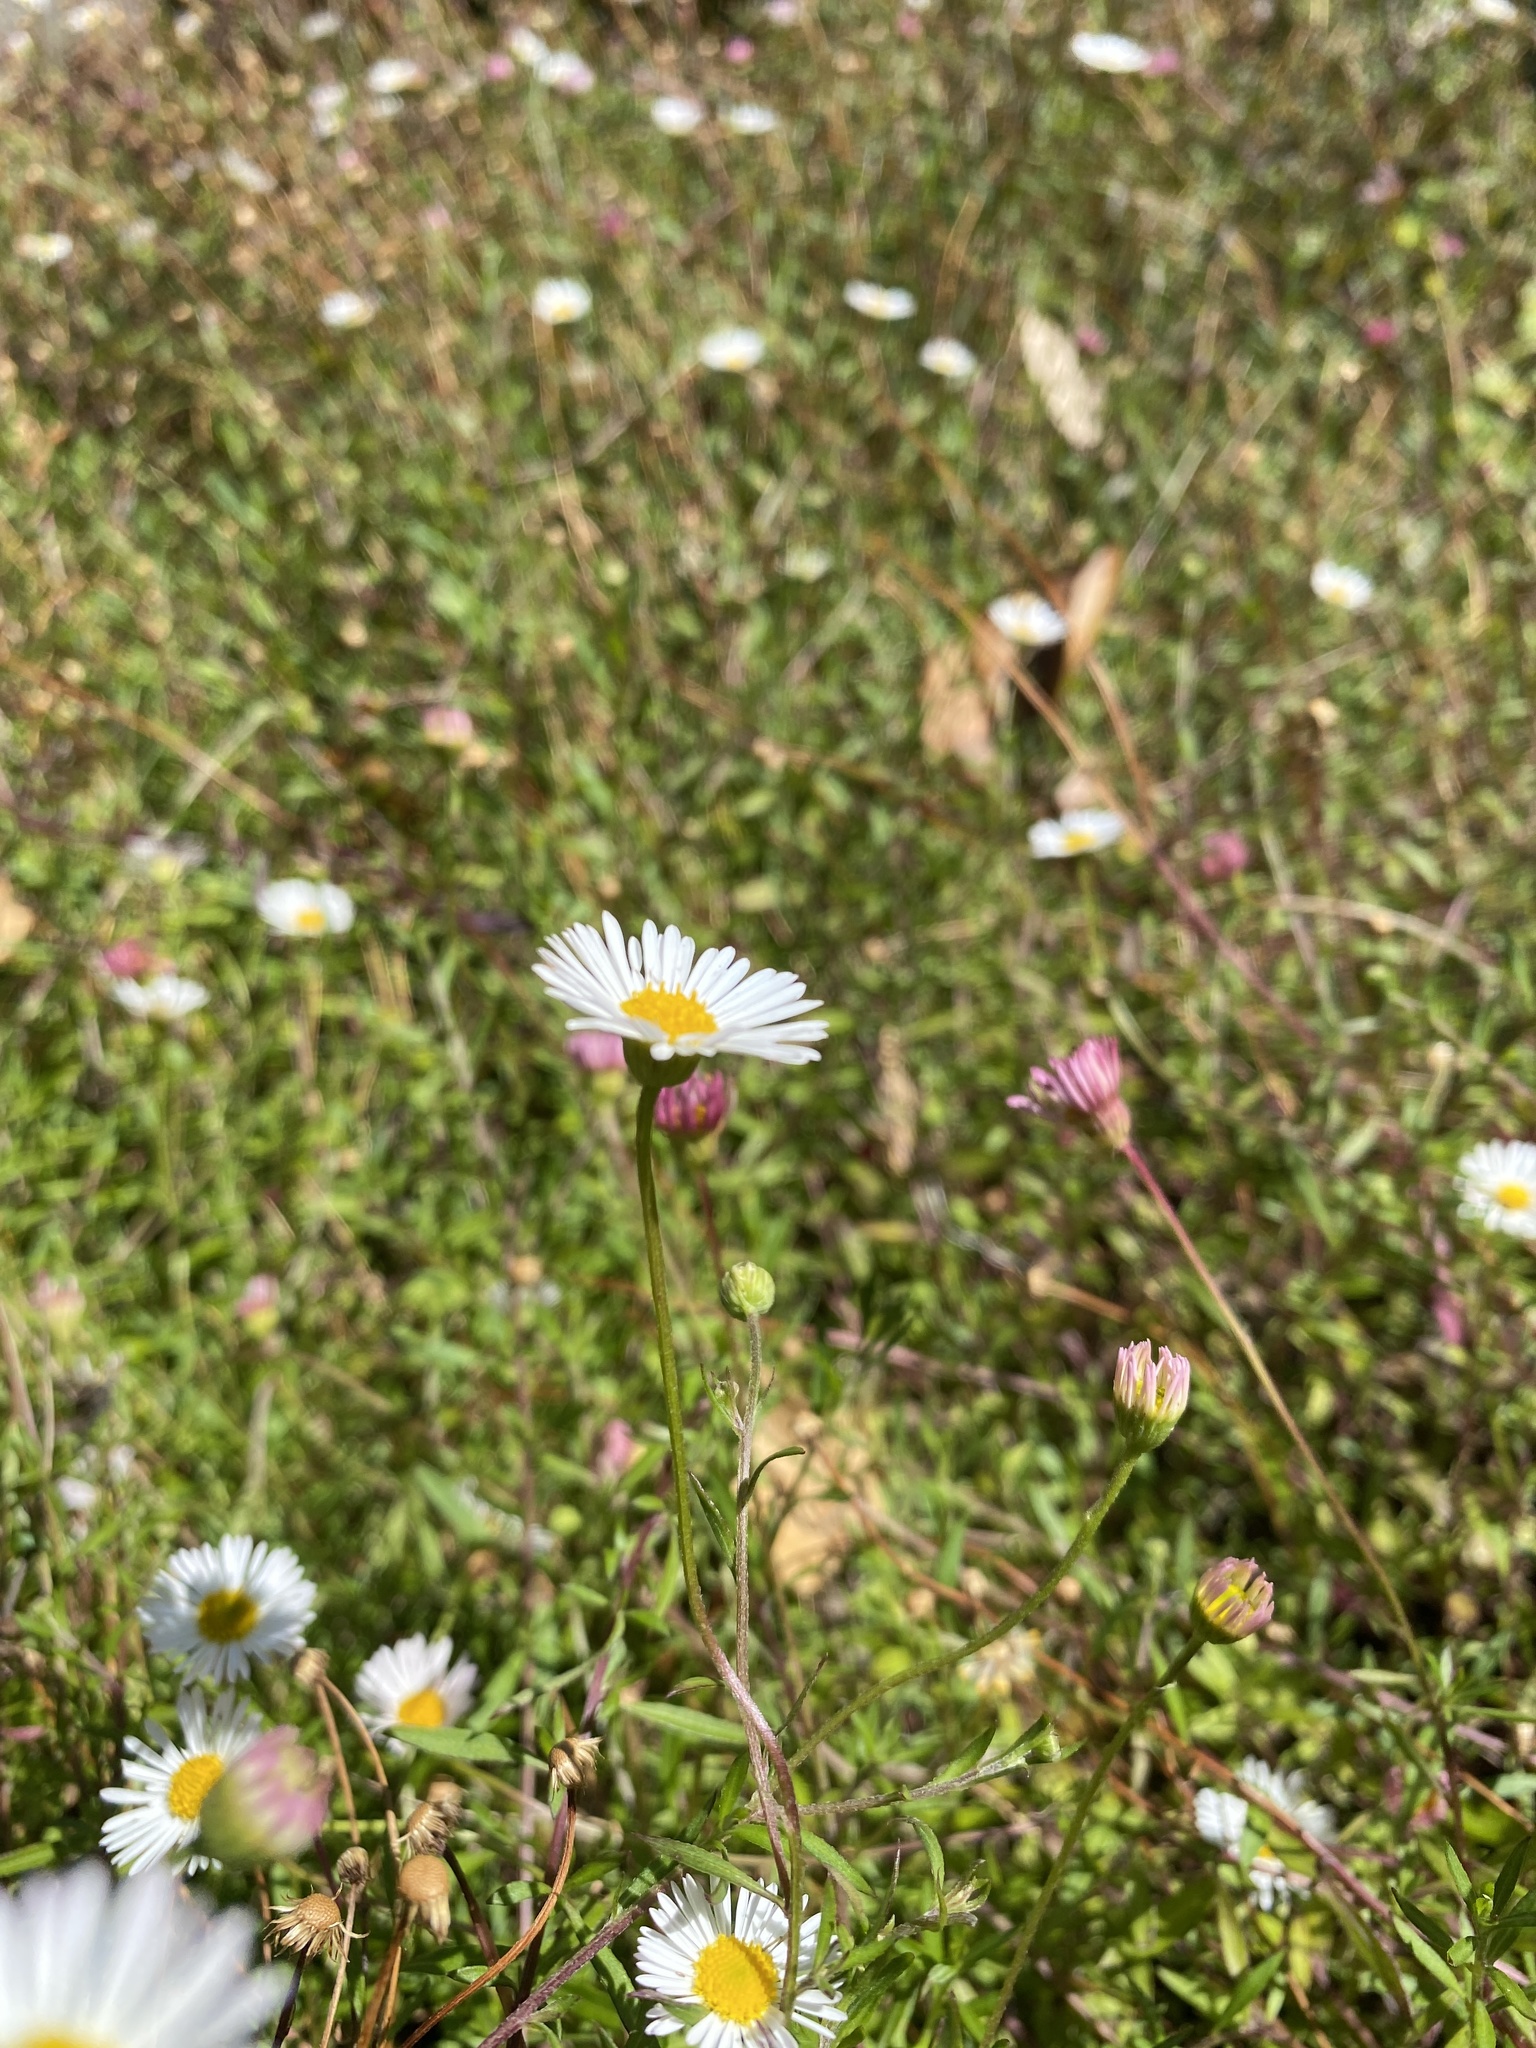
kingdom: Plantae
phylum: Tracheophyta
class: Magnoliopsida
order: Asterales
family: Asteraceae
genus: Erigeron
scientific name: Erigeron karvinskianus
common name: Mexican fleabane
